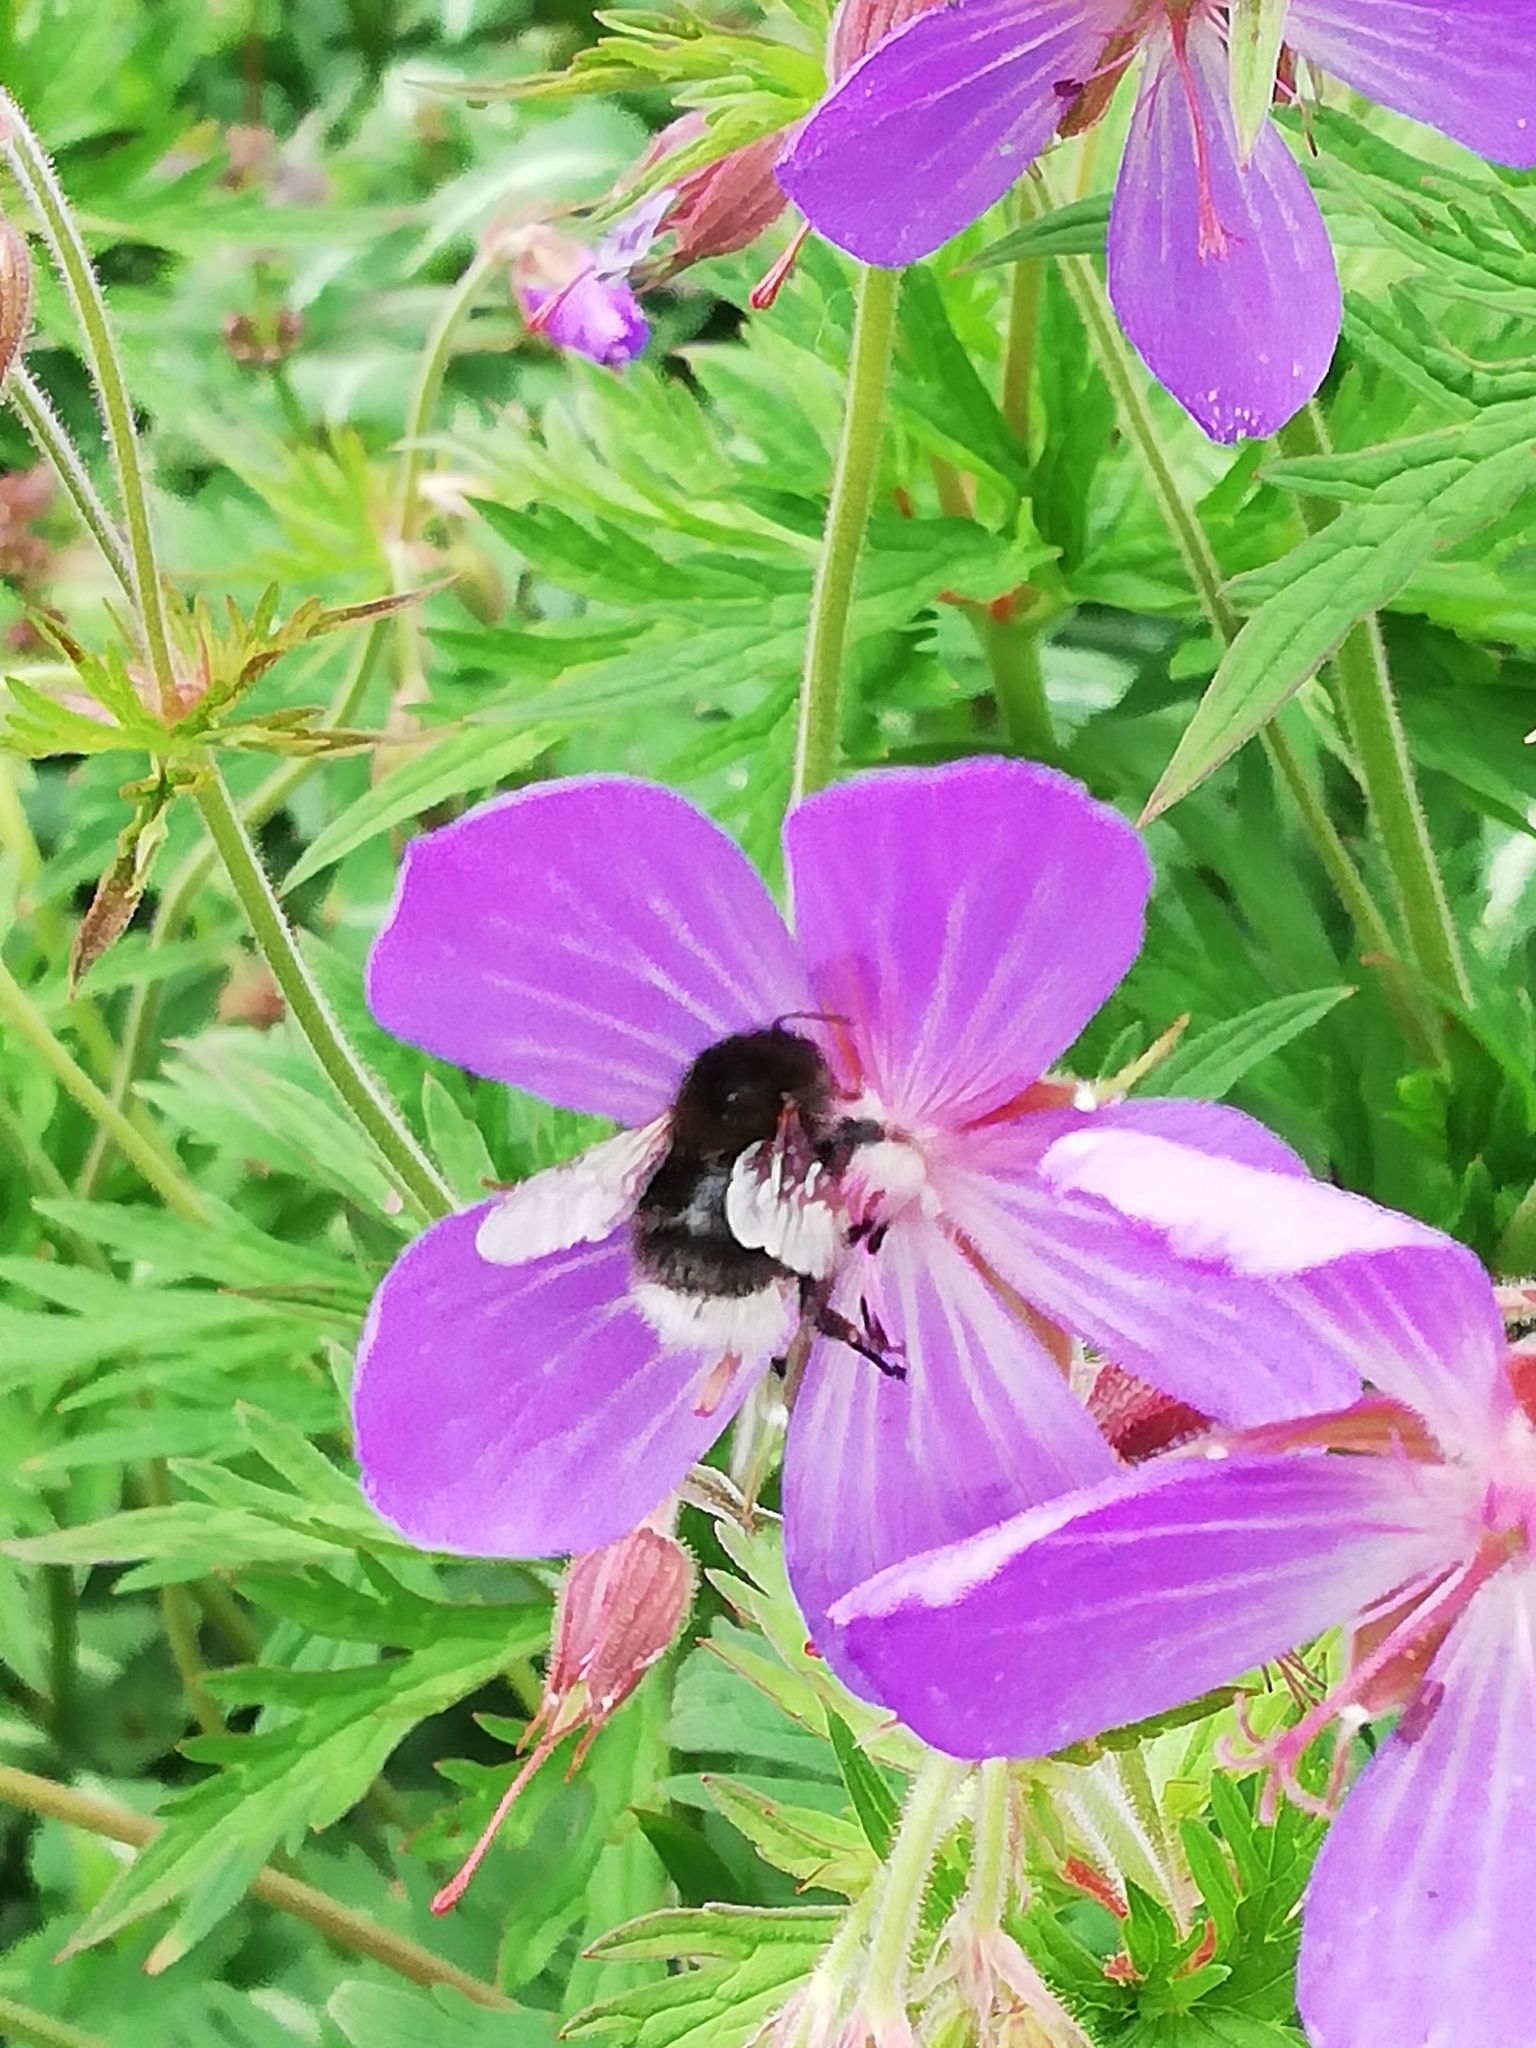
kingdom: Animalia
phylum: Arthropoda
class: Insecta
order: Hymenoptera
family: Apidae
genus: Bombus
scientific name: Bombus hypnorum
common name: New garden bumblebee
